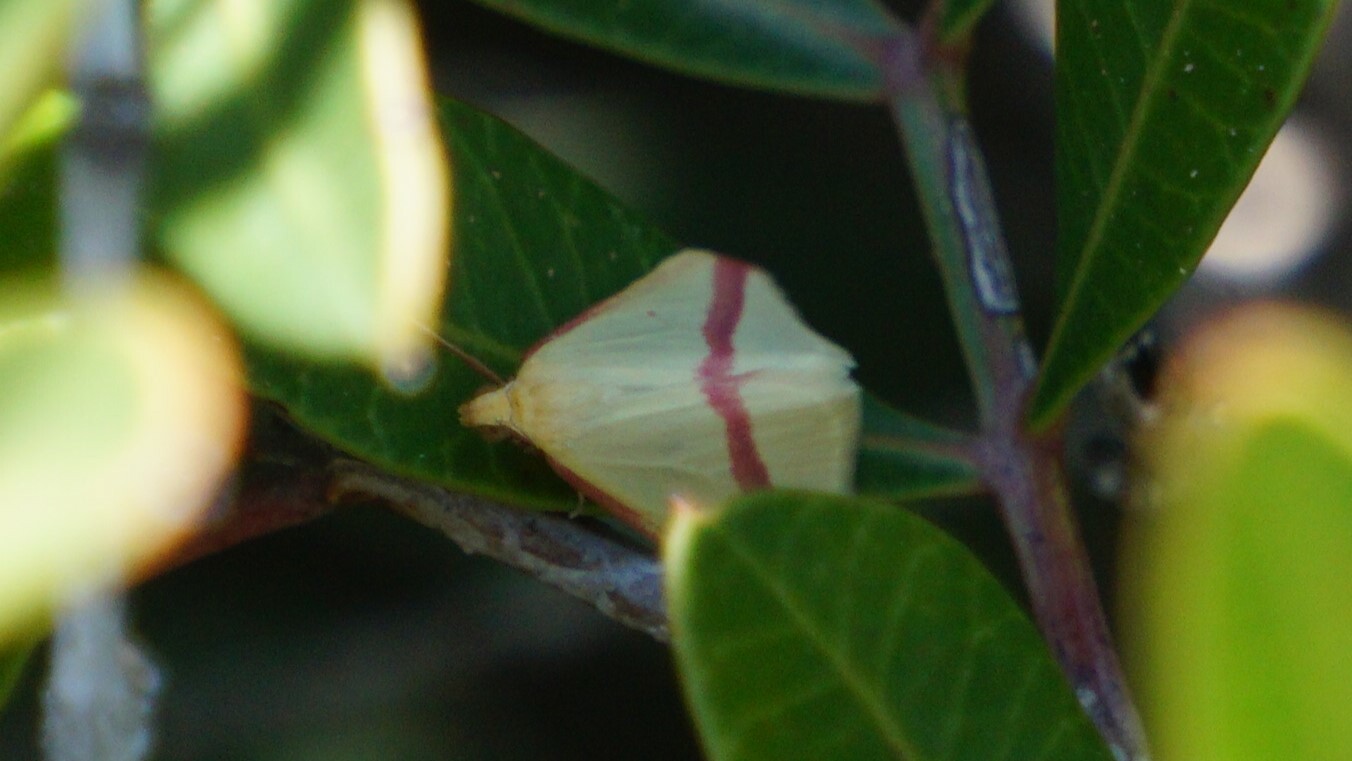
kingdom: Animalia
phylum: Arthropoda
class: Insecta
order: Lepidoptera
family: Geometridae
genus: Rhodometra
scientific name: Rhodometra sacraria
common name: Vestal
